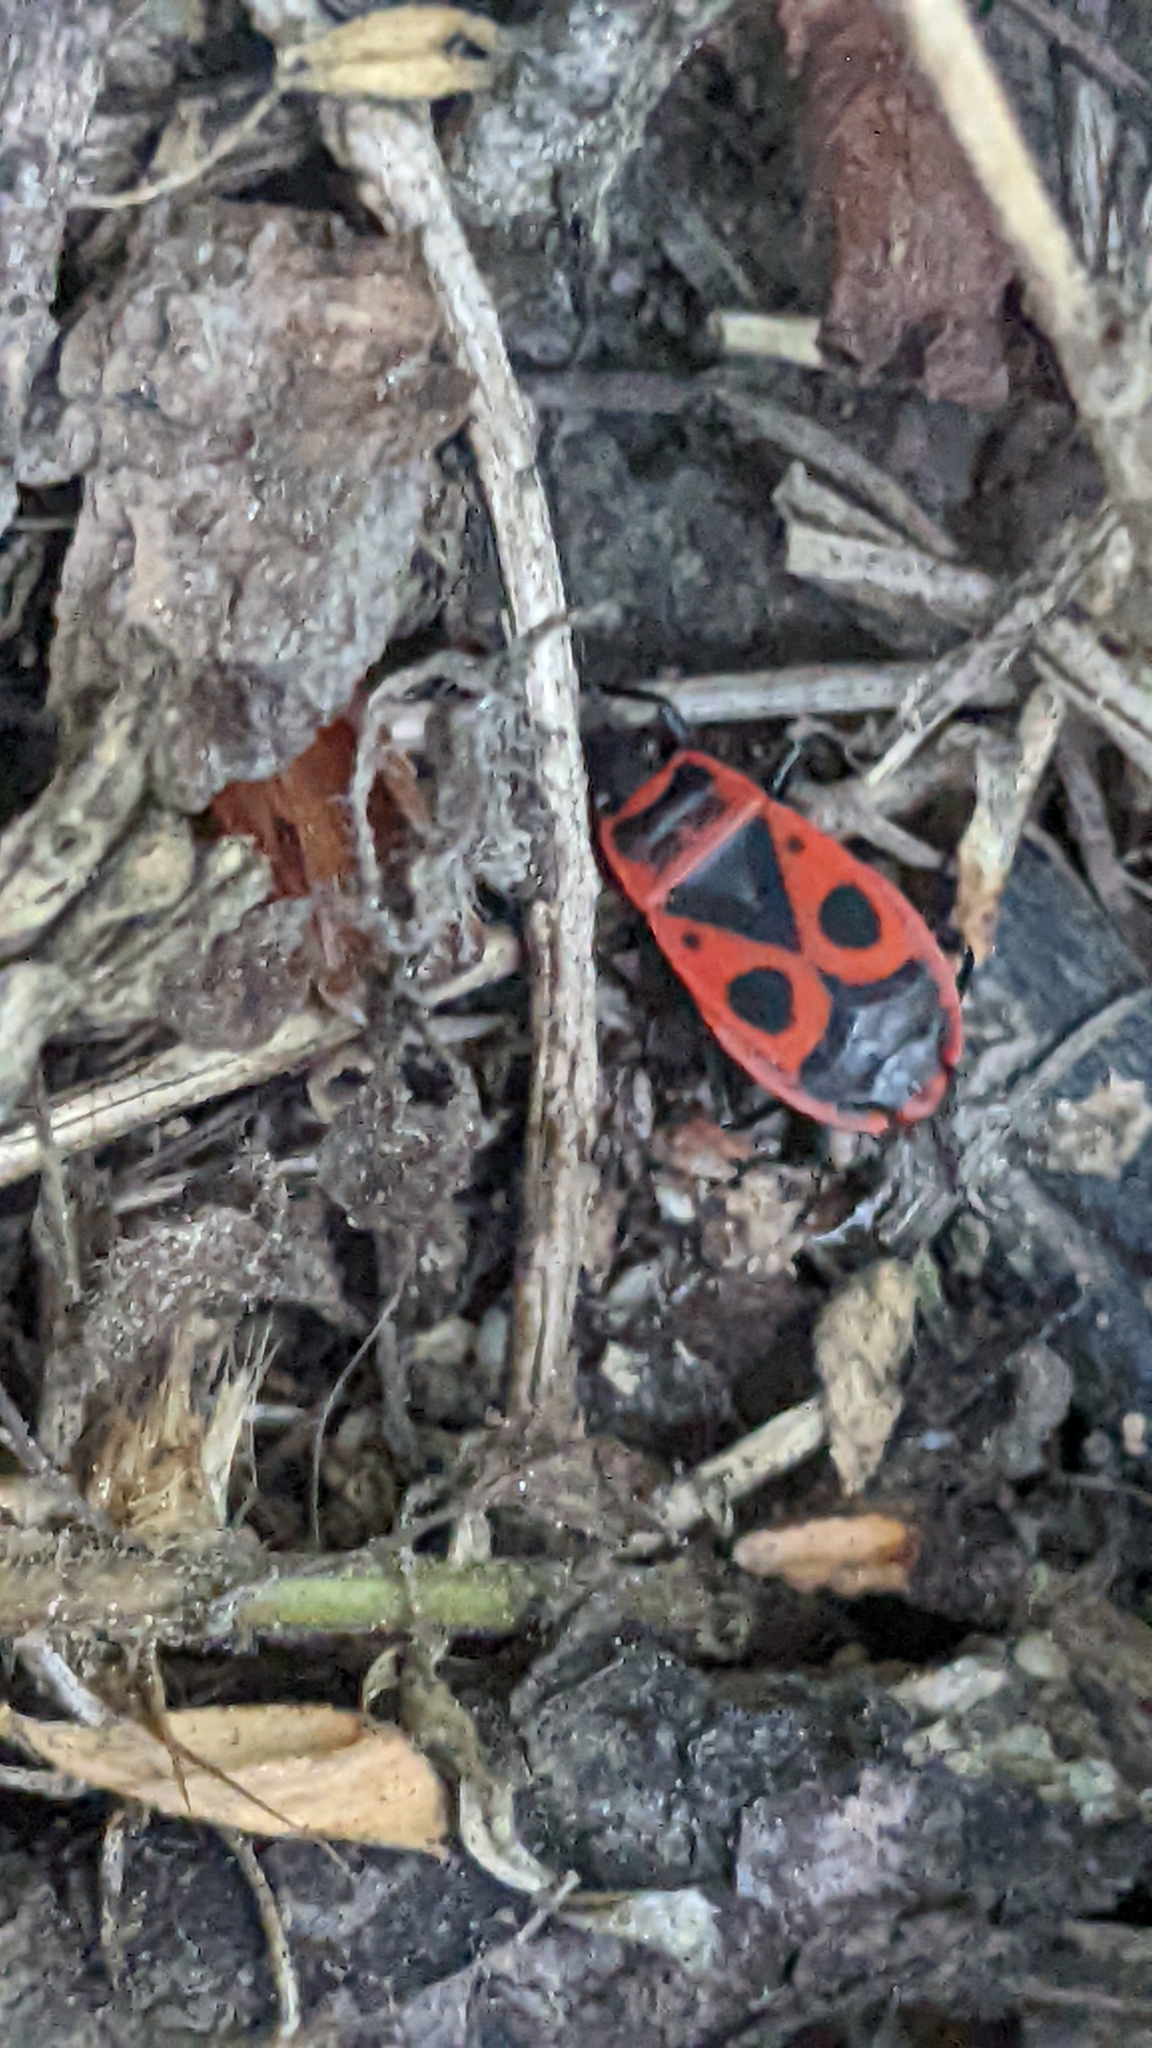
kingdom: Animalia
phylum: Arthropoda
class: Insecta
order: Hemiptera
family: Pyrrhocoridae
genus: Pyrrhocoris
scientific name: Pyrrhocoris apterus
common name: Firebug
